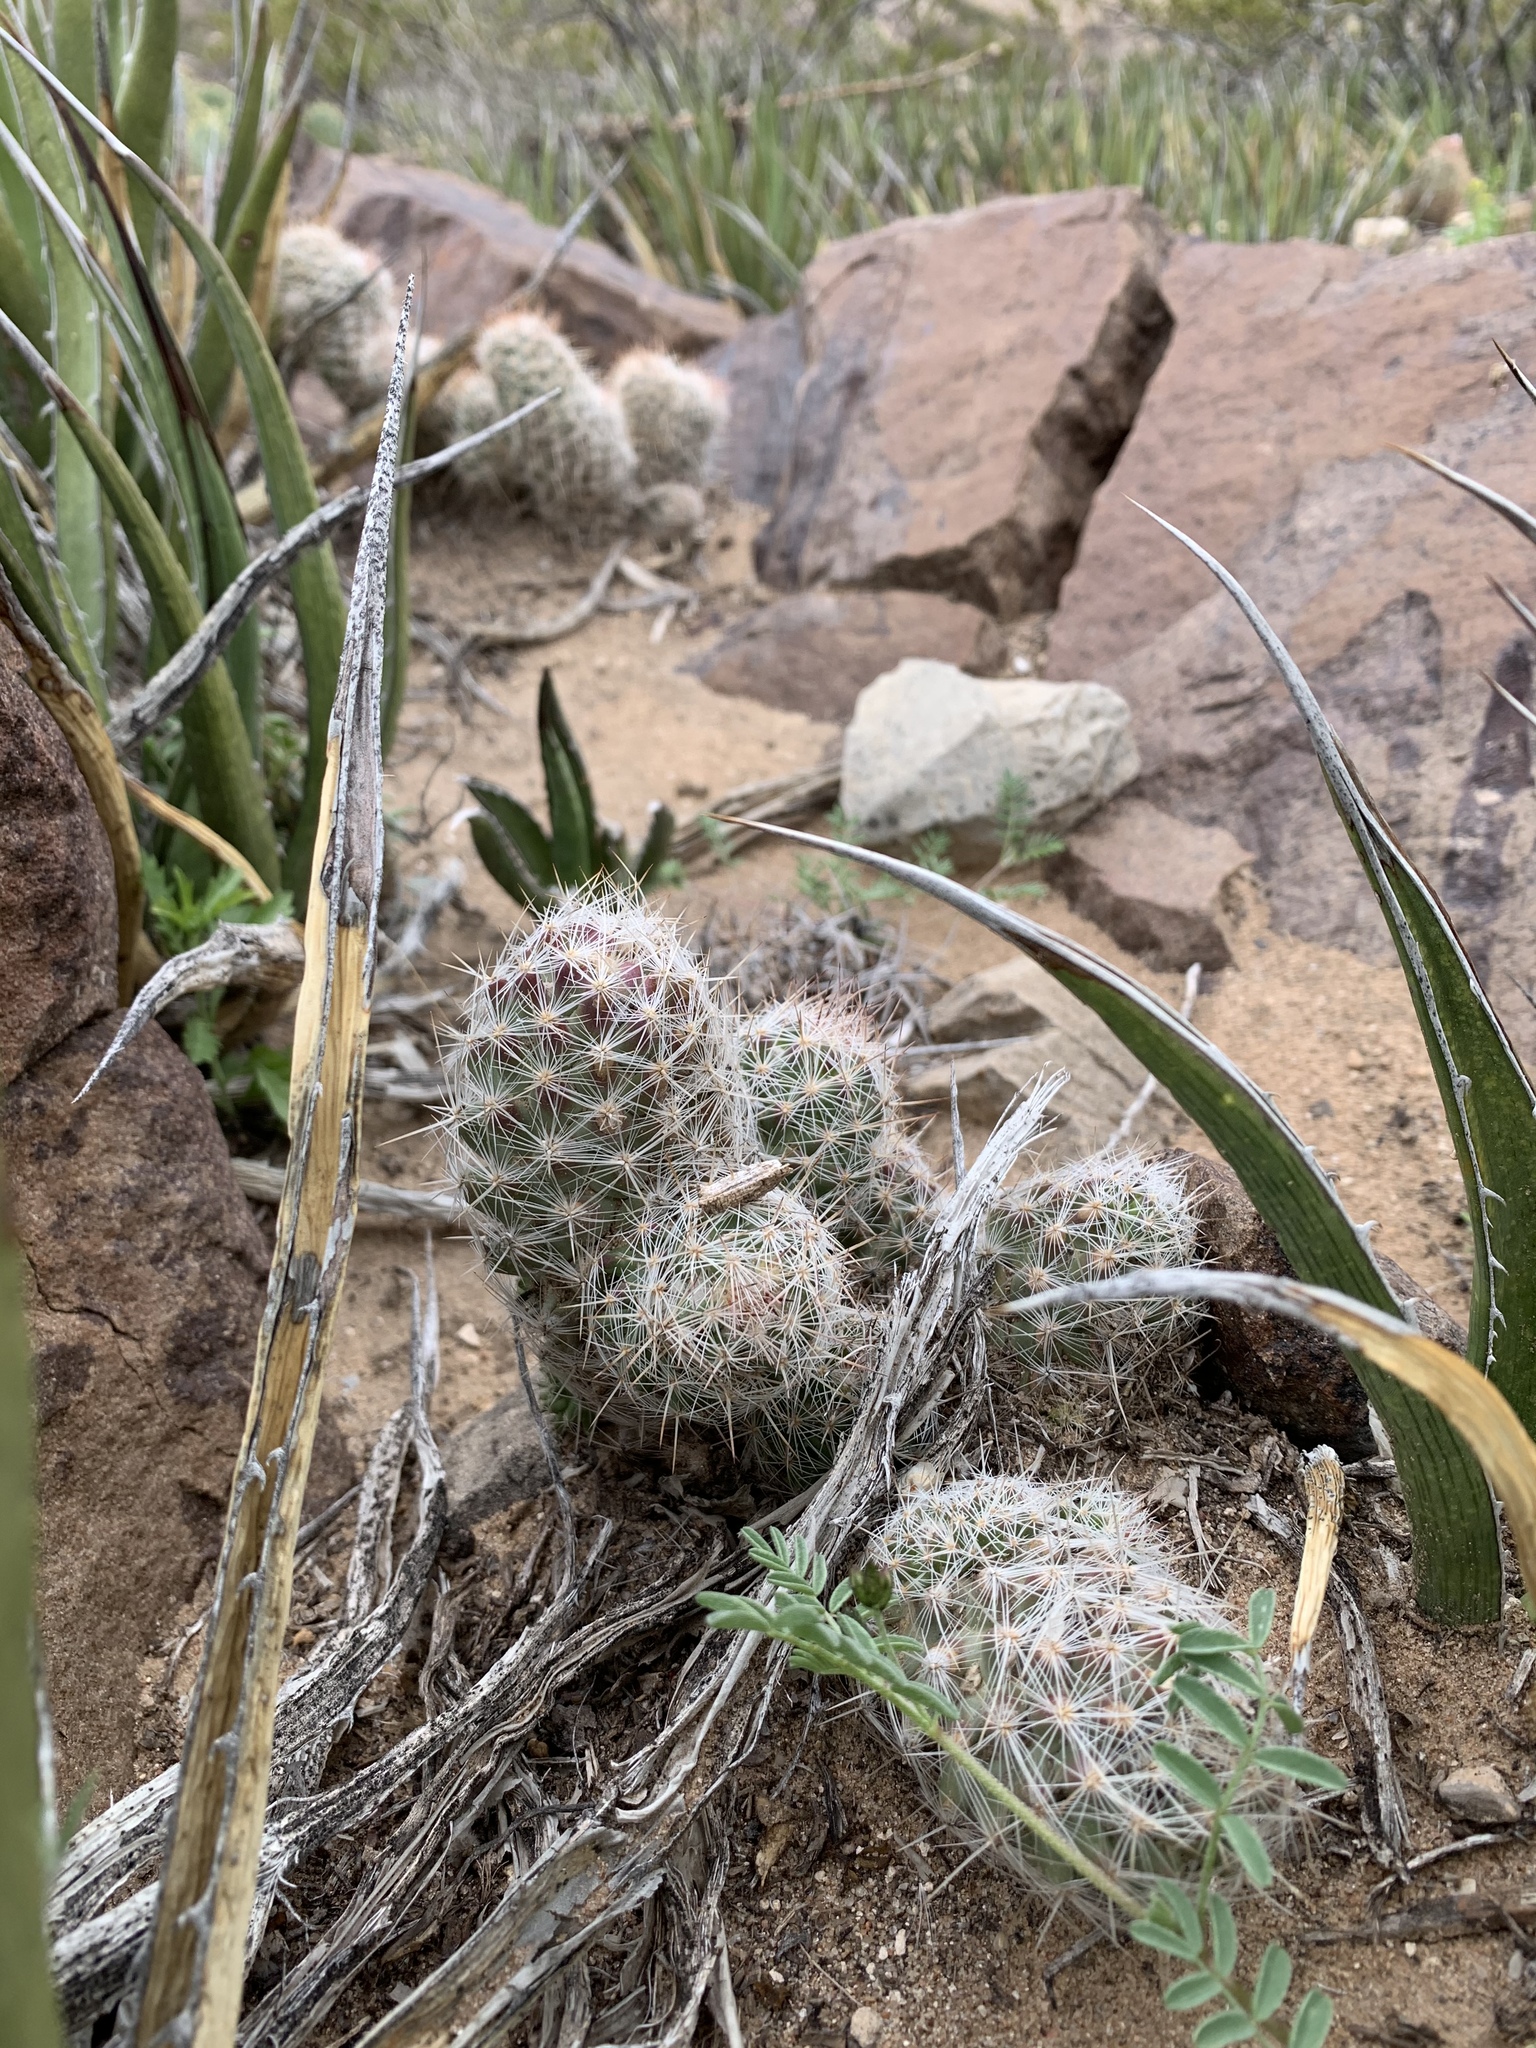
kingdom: Plantae
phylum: Tracheophyta
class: Magnoliopsida
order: Caryophyllales
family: Cactaceae
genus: Pelecyphora
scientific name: Pelecyphora tuberculosa
